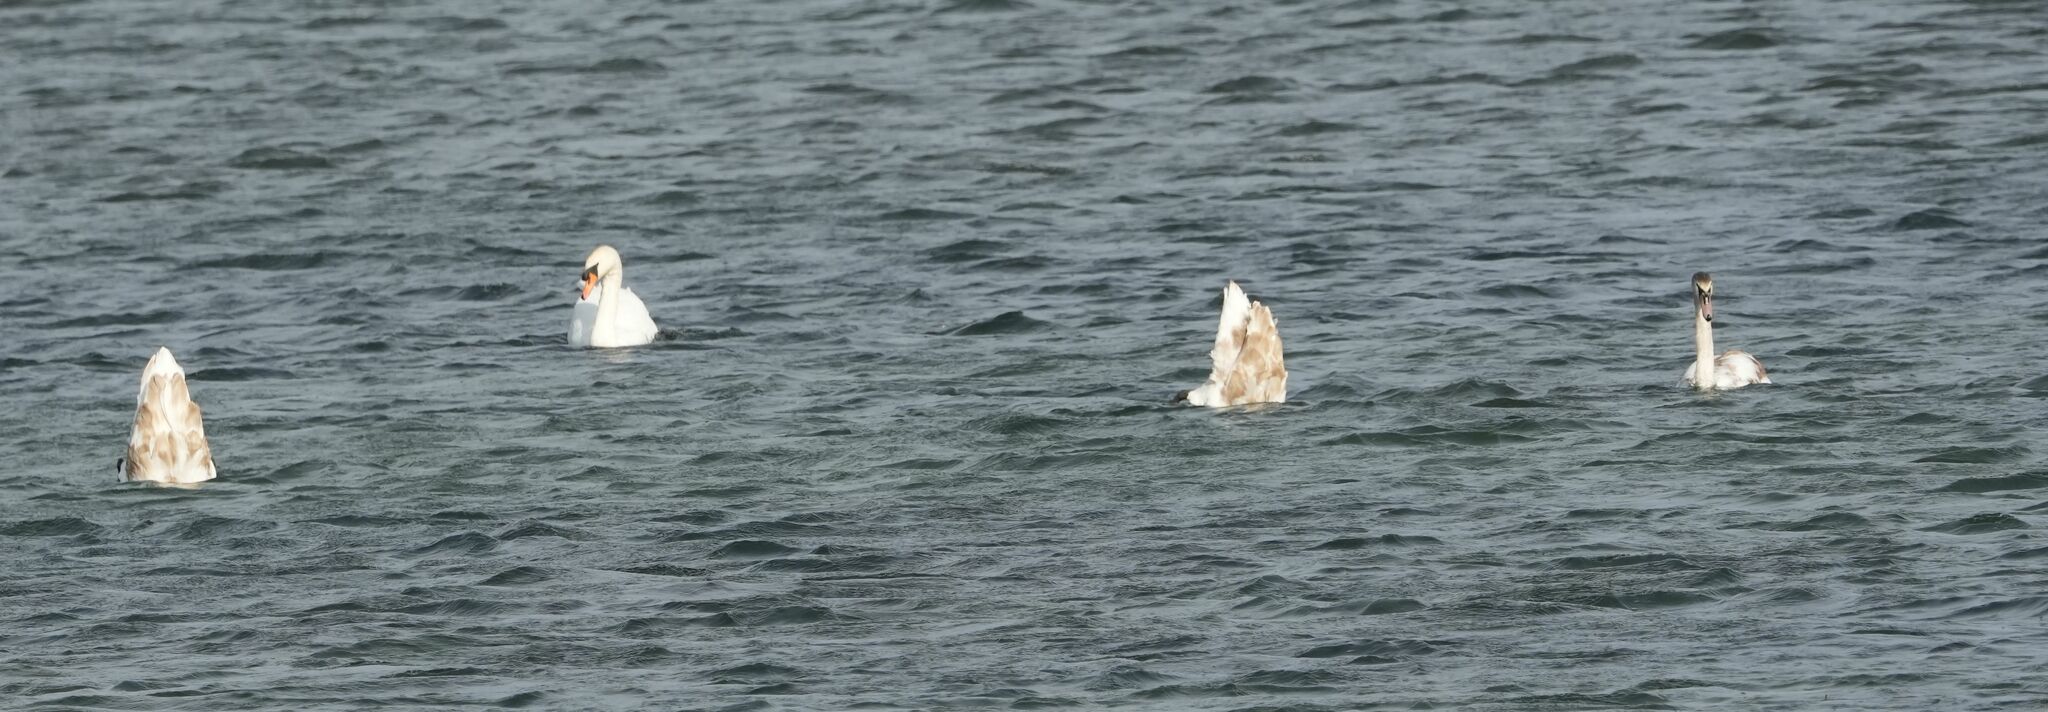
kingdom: Animalia
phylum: Chordata
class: Aves
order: Anseriformes
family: Anatidae
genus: Cygnus
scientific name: Cygnus olor
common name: Mute swan
